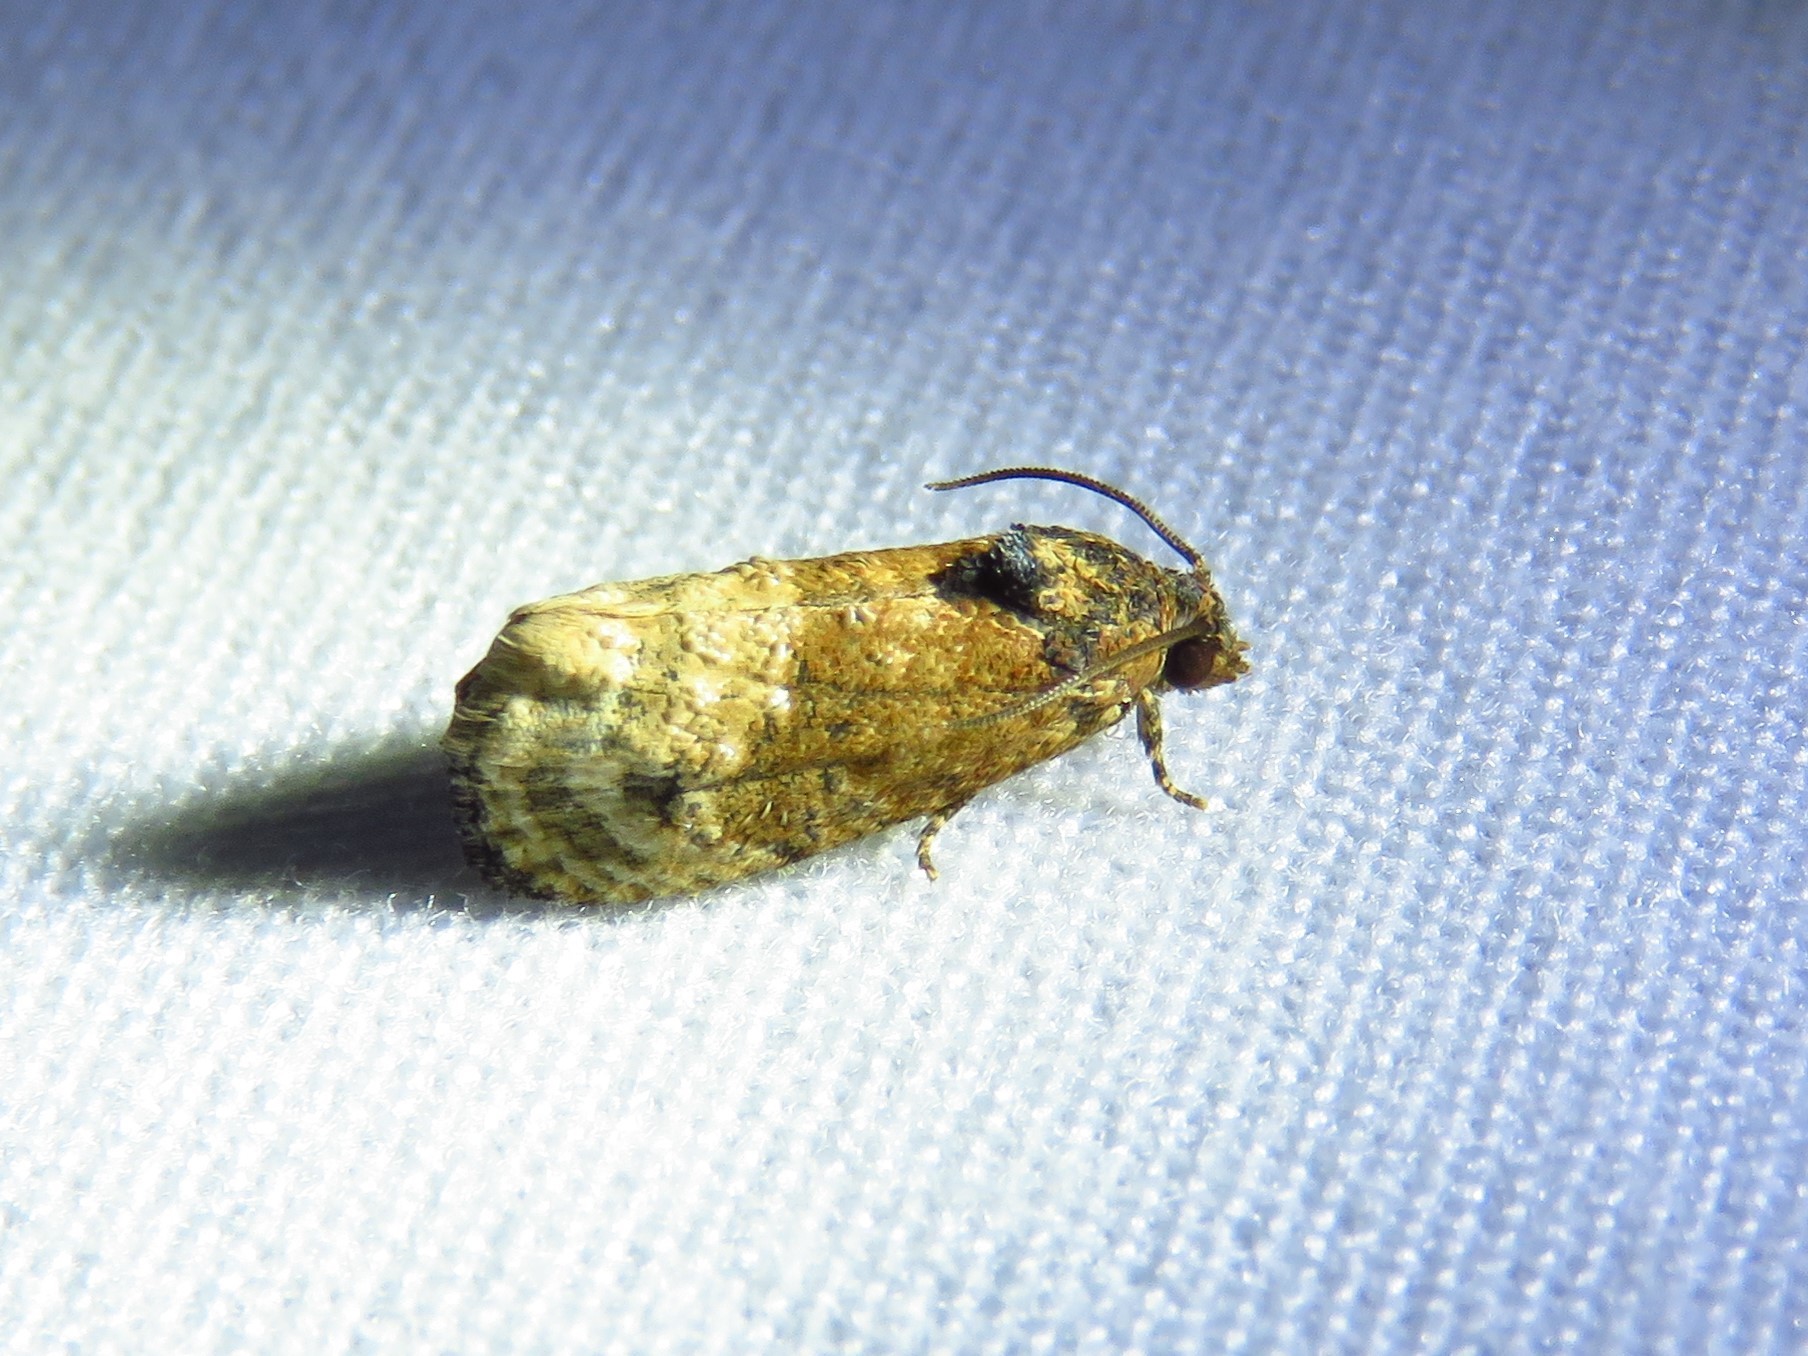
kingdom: Animalia
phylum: Arthropoda
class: Insecta
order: Lepidoptera
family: Tortricidae
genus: Ecdytolopha
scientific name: Ecdytolopha mana
